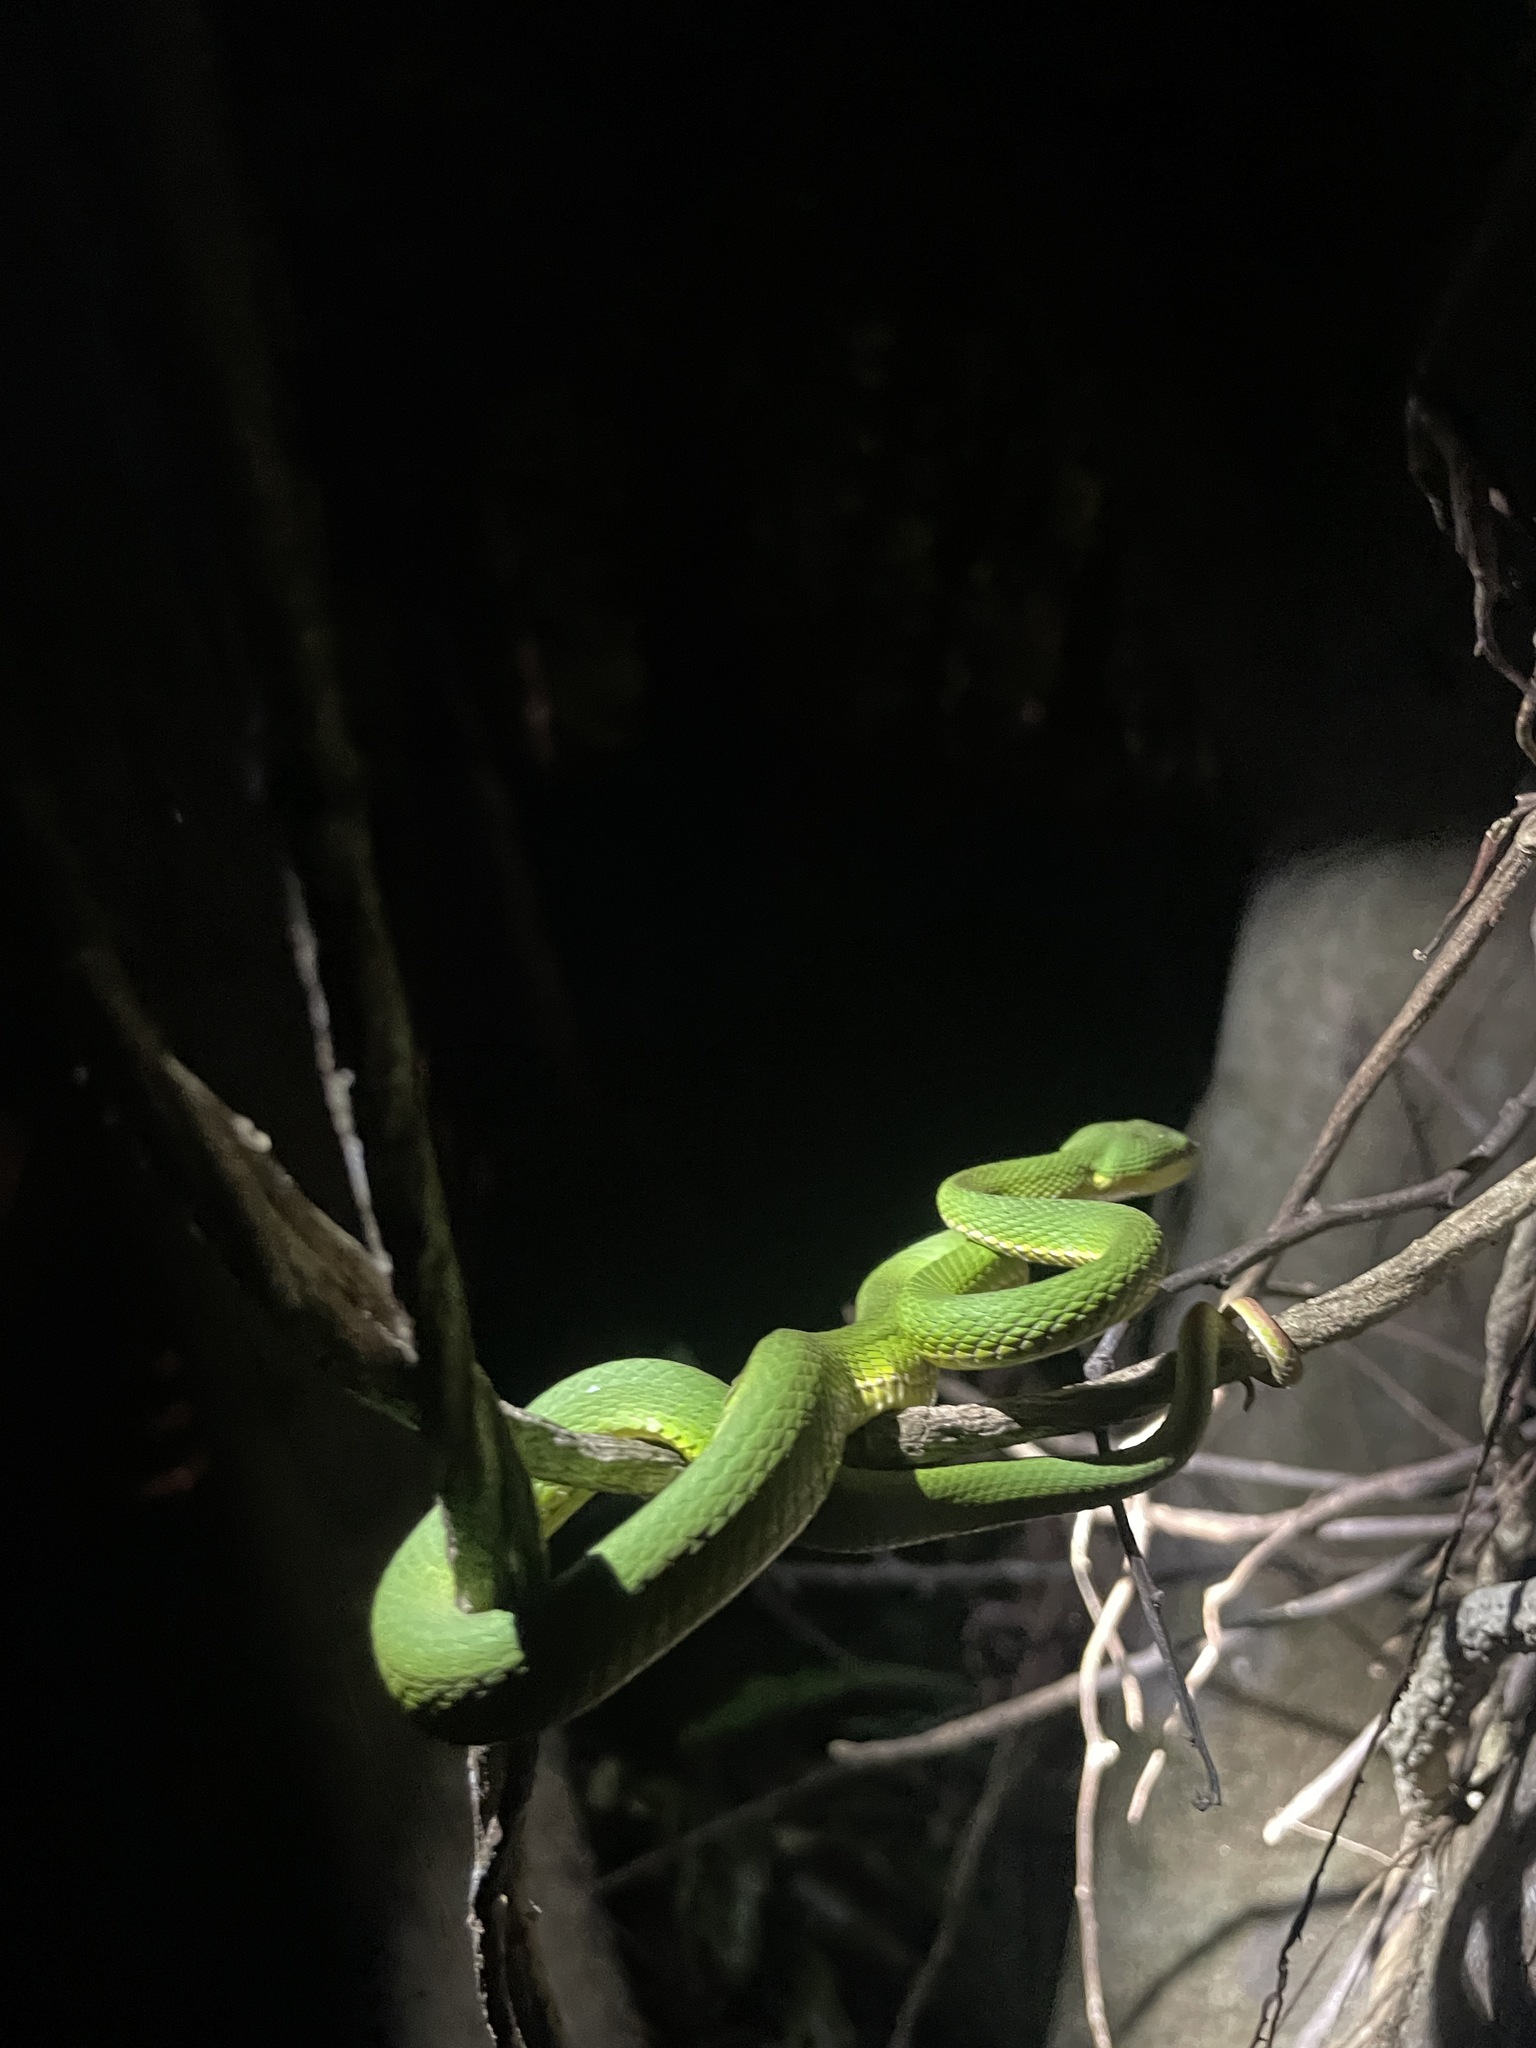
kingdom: Animalia
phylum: Chordata
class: Squamata
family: Viperidae
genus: Trimeresurus
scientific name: Trimeresurus albolabris
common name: White-lipped pitviper
